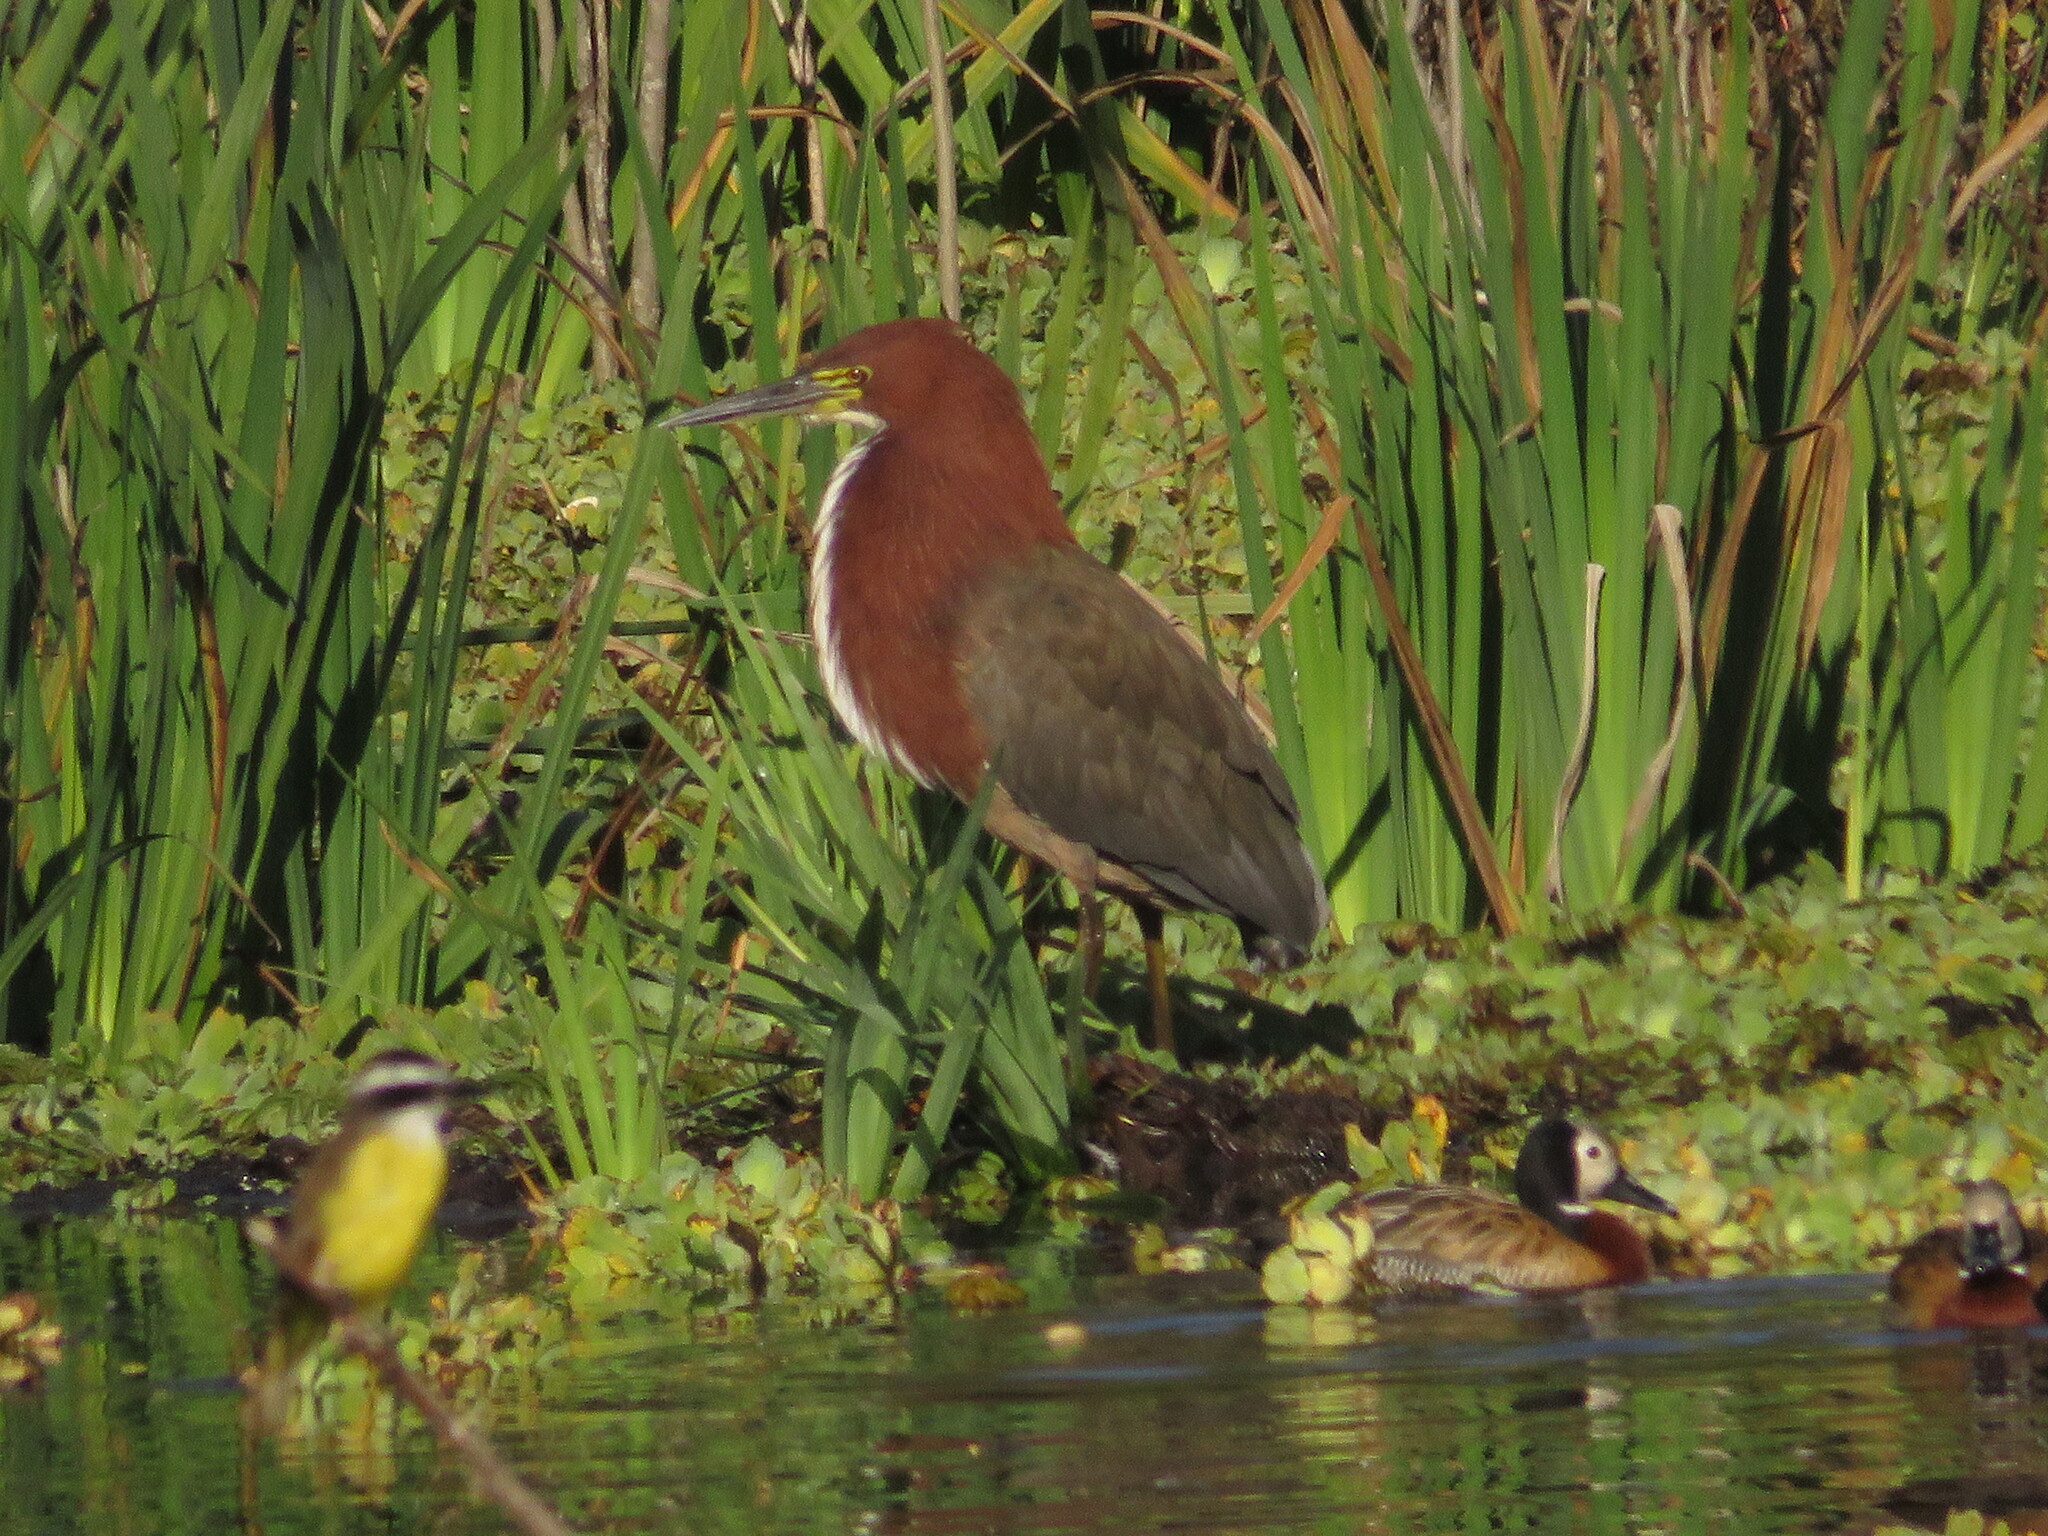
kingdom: Animalia
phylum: Chordata
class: Aves
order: Pelecaniformes
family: Ardeidae
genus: Tigrisoma
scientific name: Tigrisoma lineatum
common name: Rufescent tiger-heron
